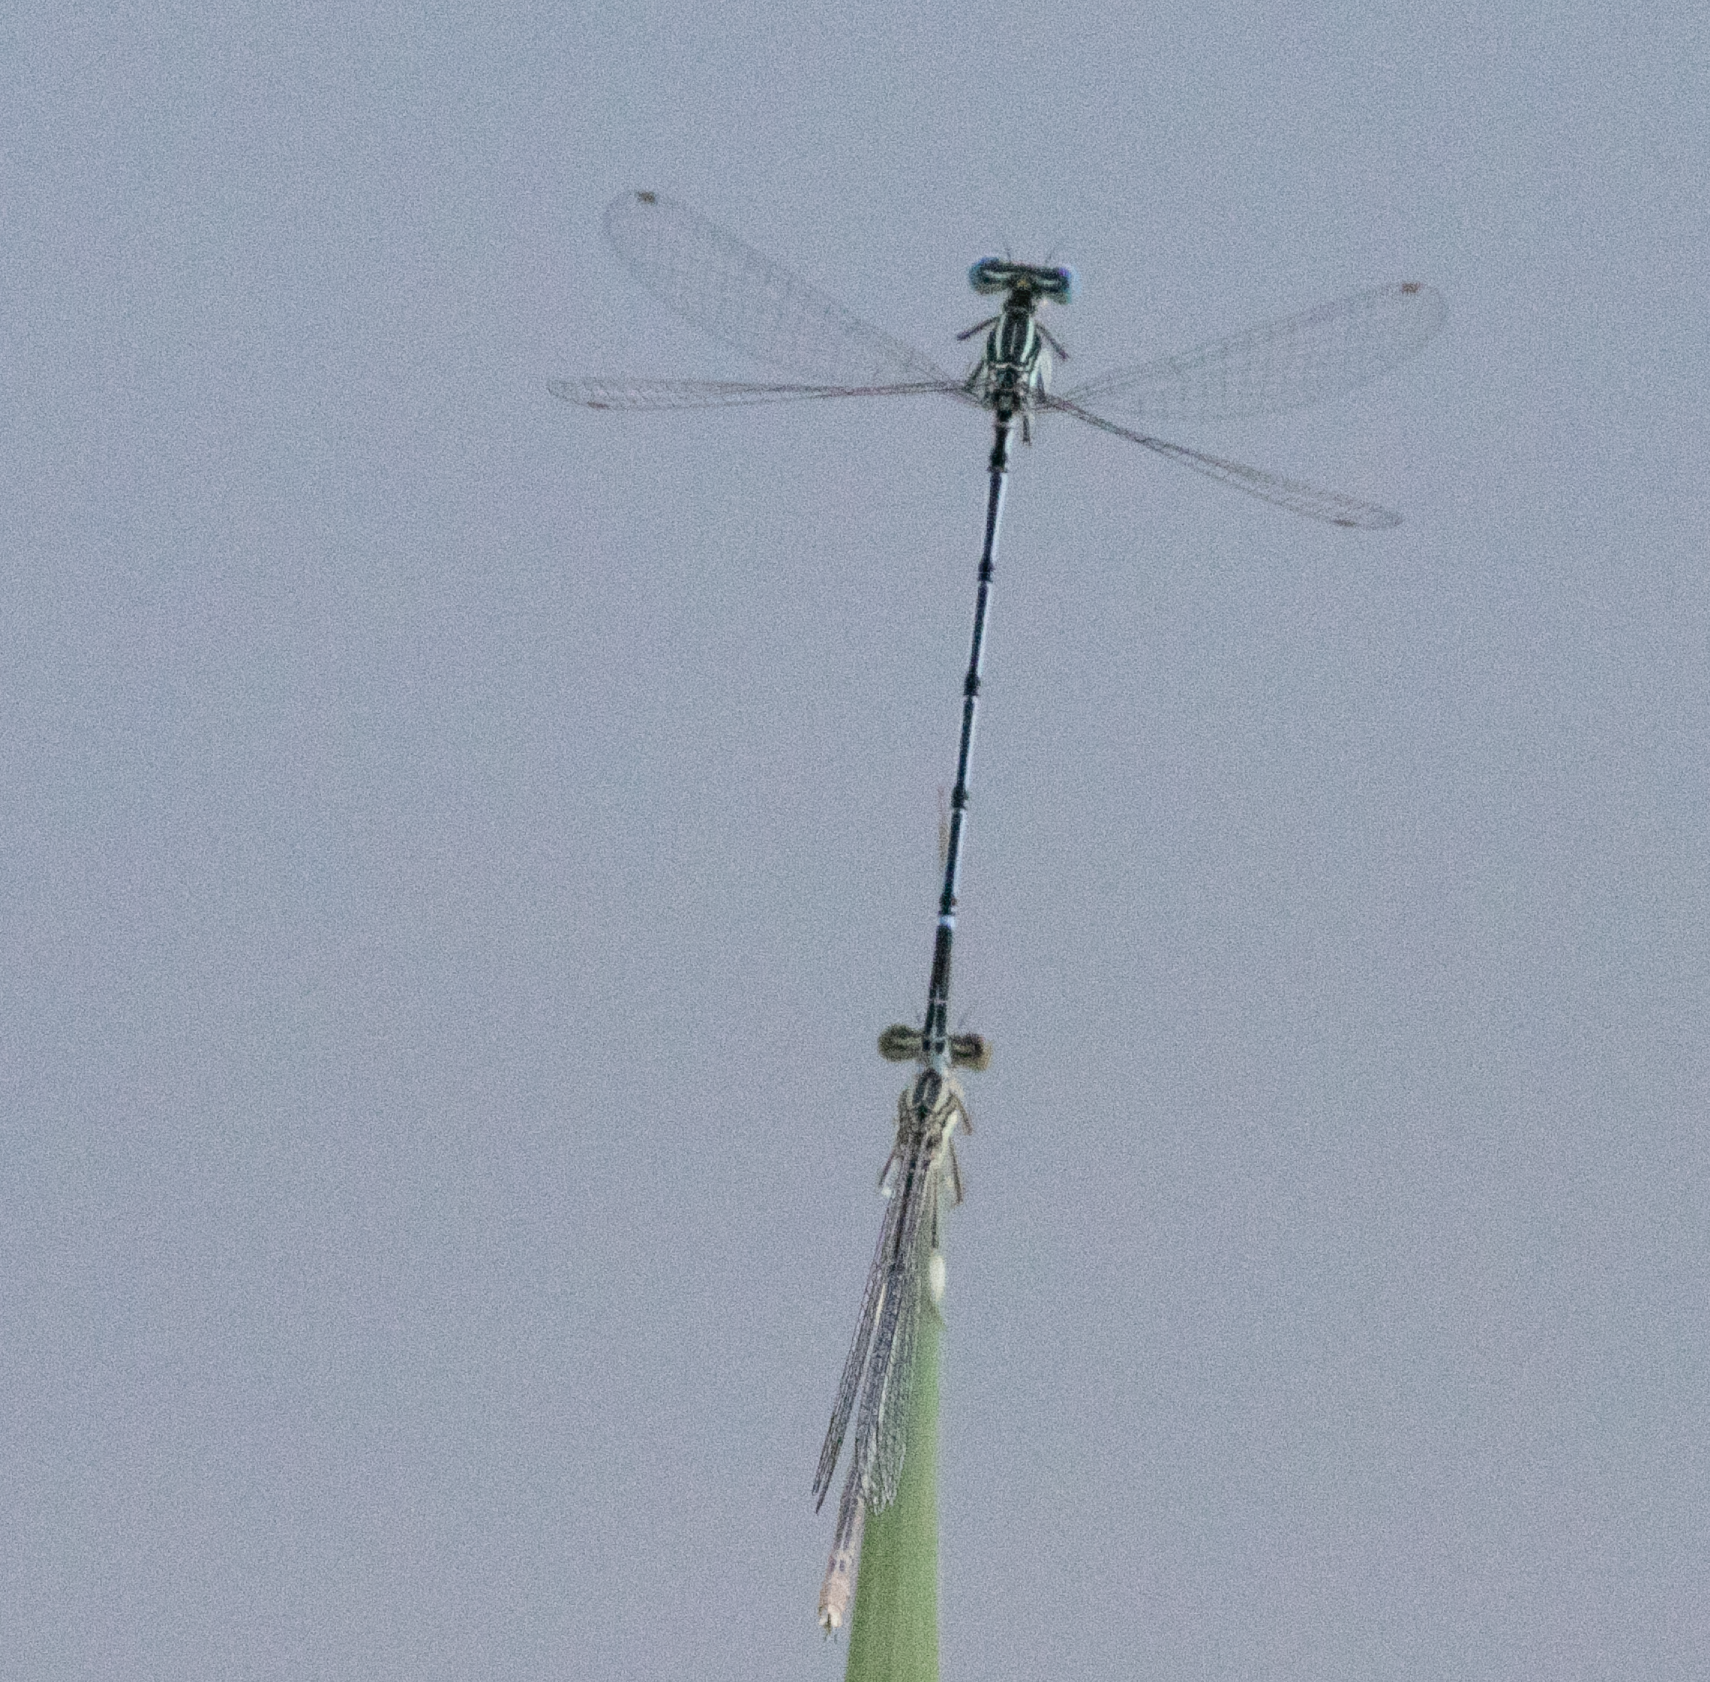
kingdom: Animalia
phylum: Arthropoda
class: Insecta
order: Odonata
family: Platycnemididae
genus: Platycnemis
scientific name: Platycnemis pennipes
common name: White-legged damselfly
